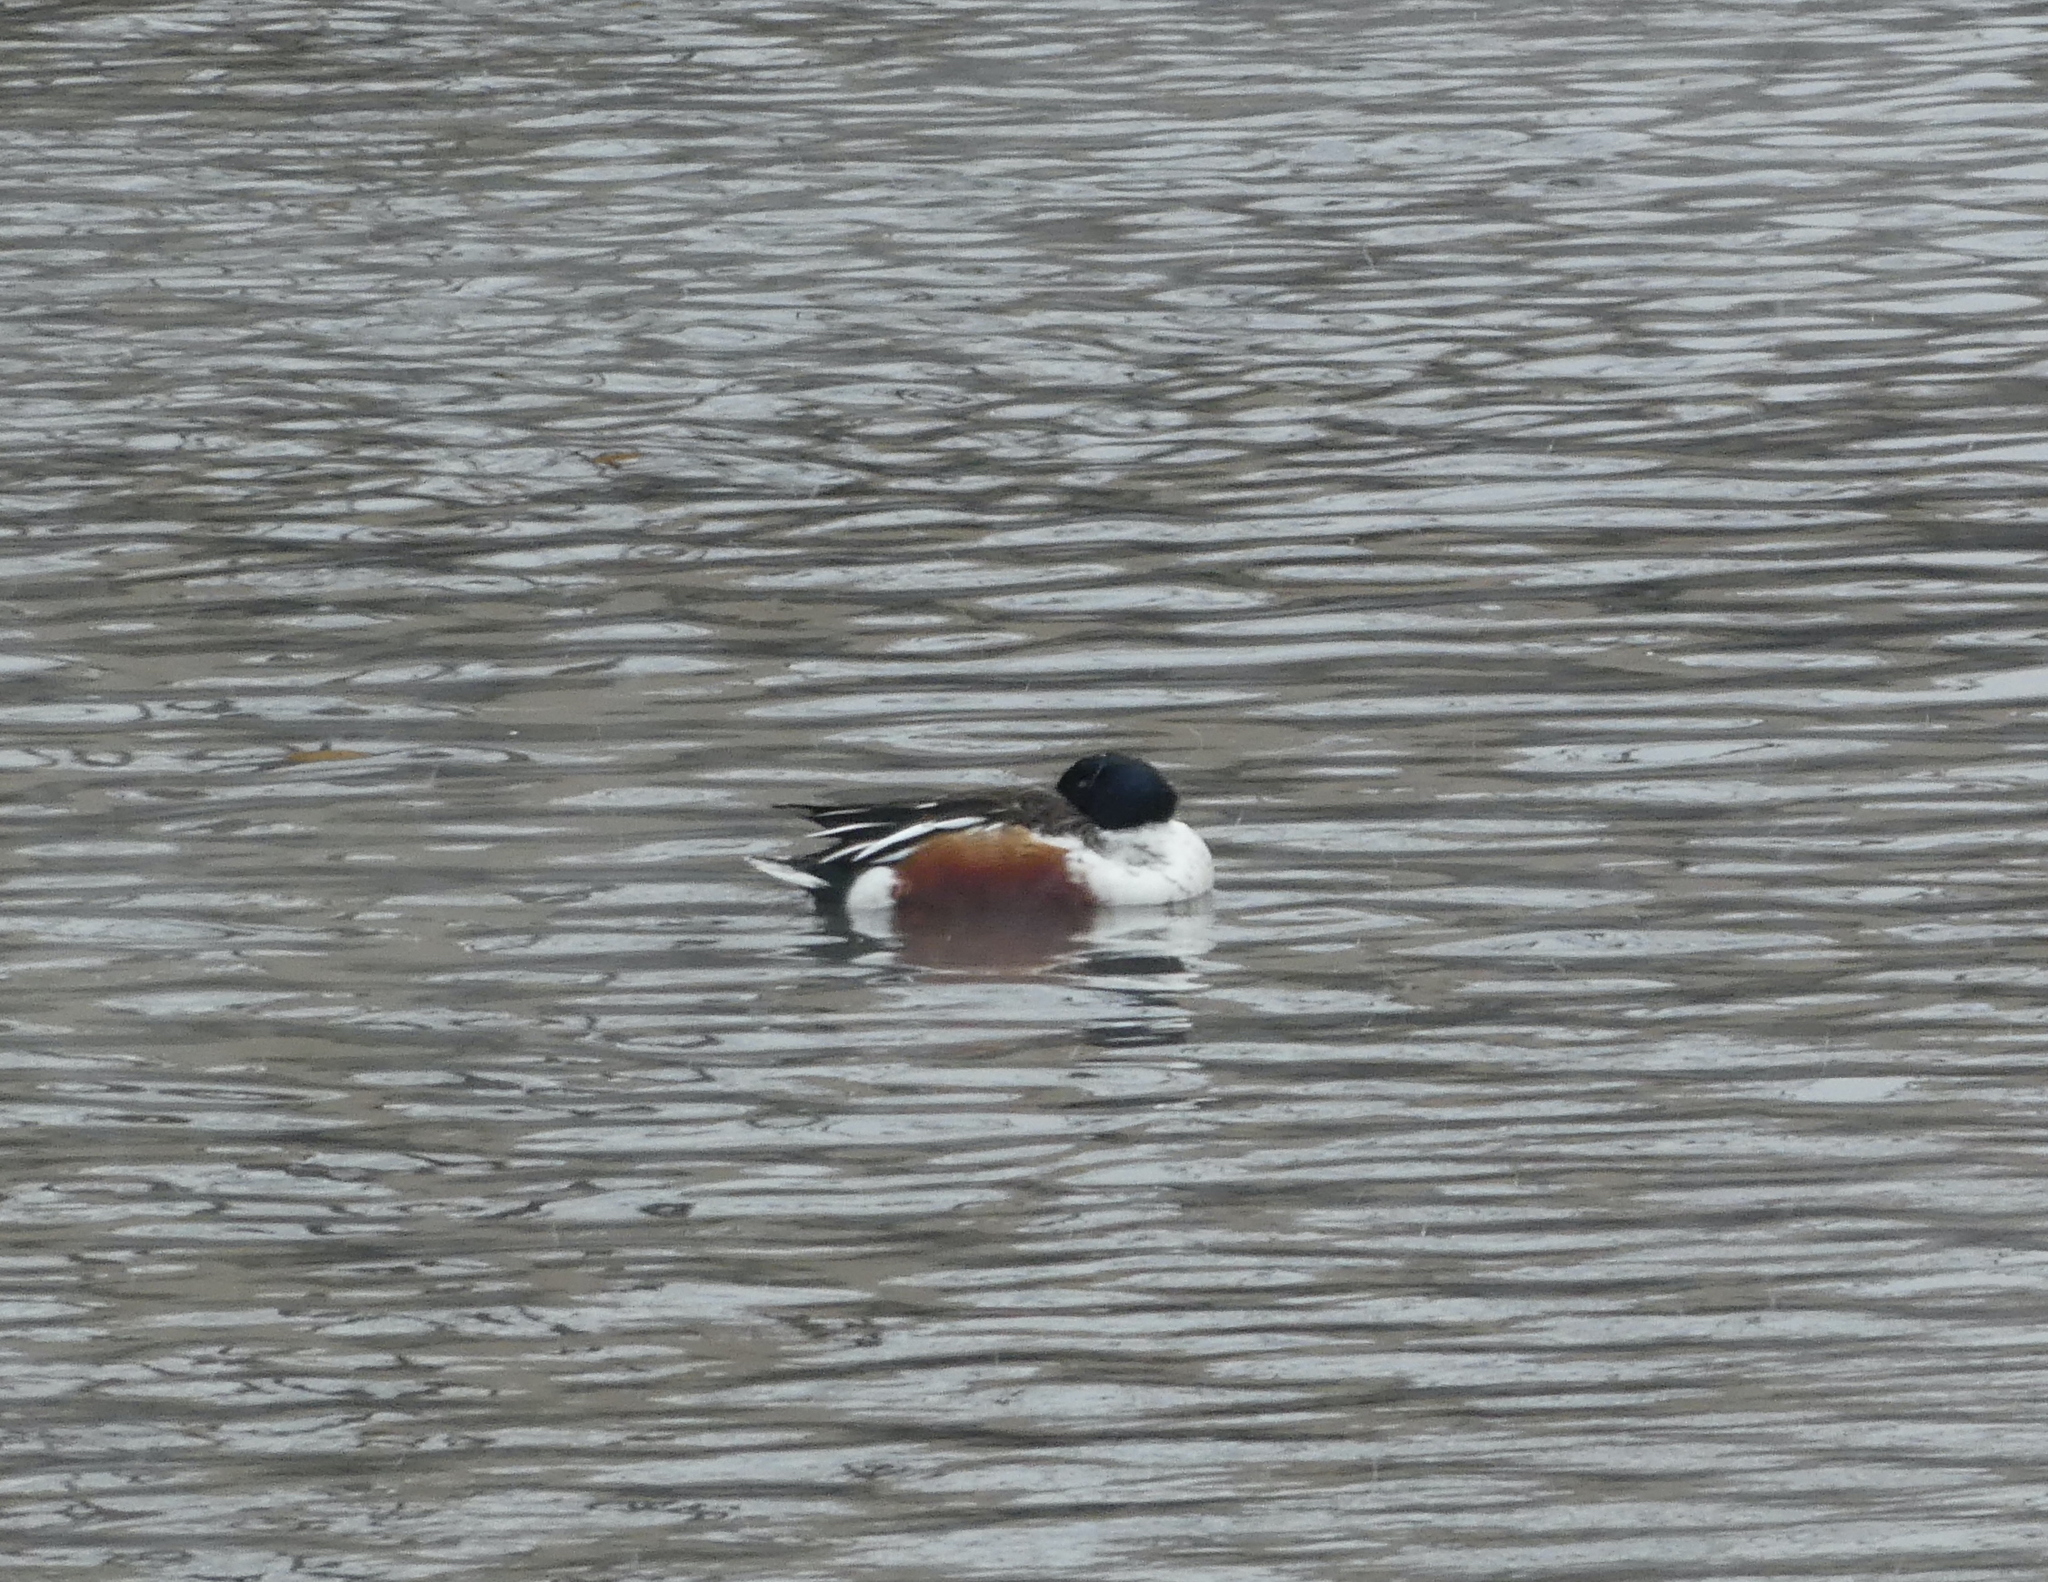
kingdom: Animalia
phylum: Chordata
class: Aves
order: Anseriformes
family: Anatidae
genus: Spatula
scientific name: Spatula clypeata
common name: Northern shoveler
